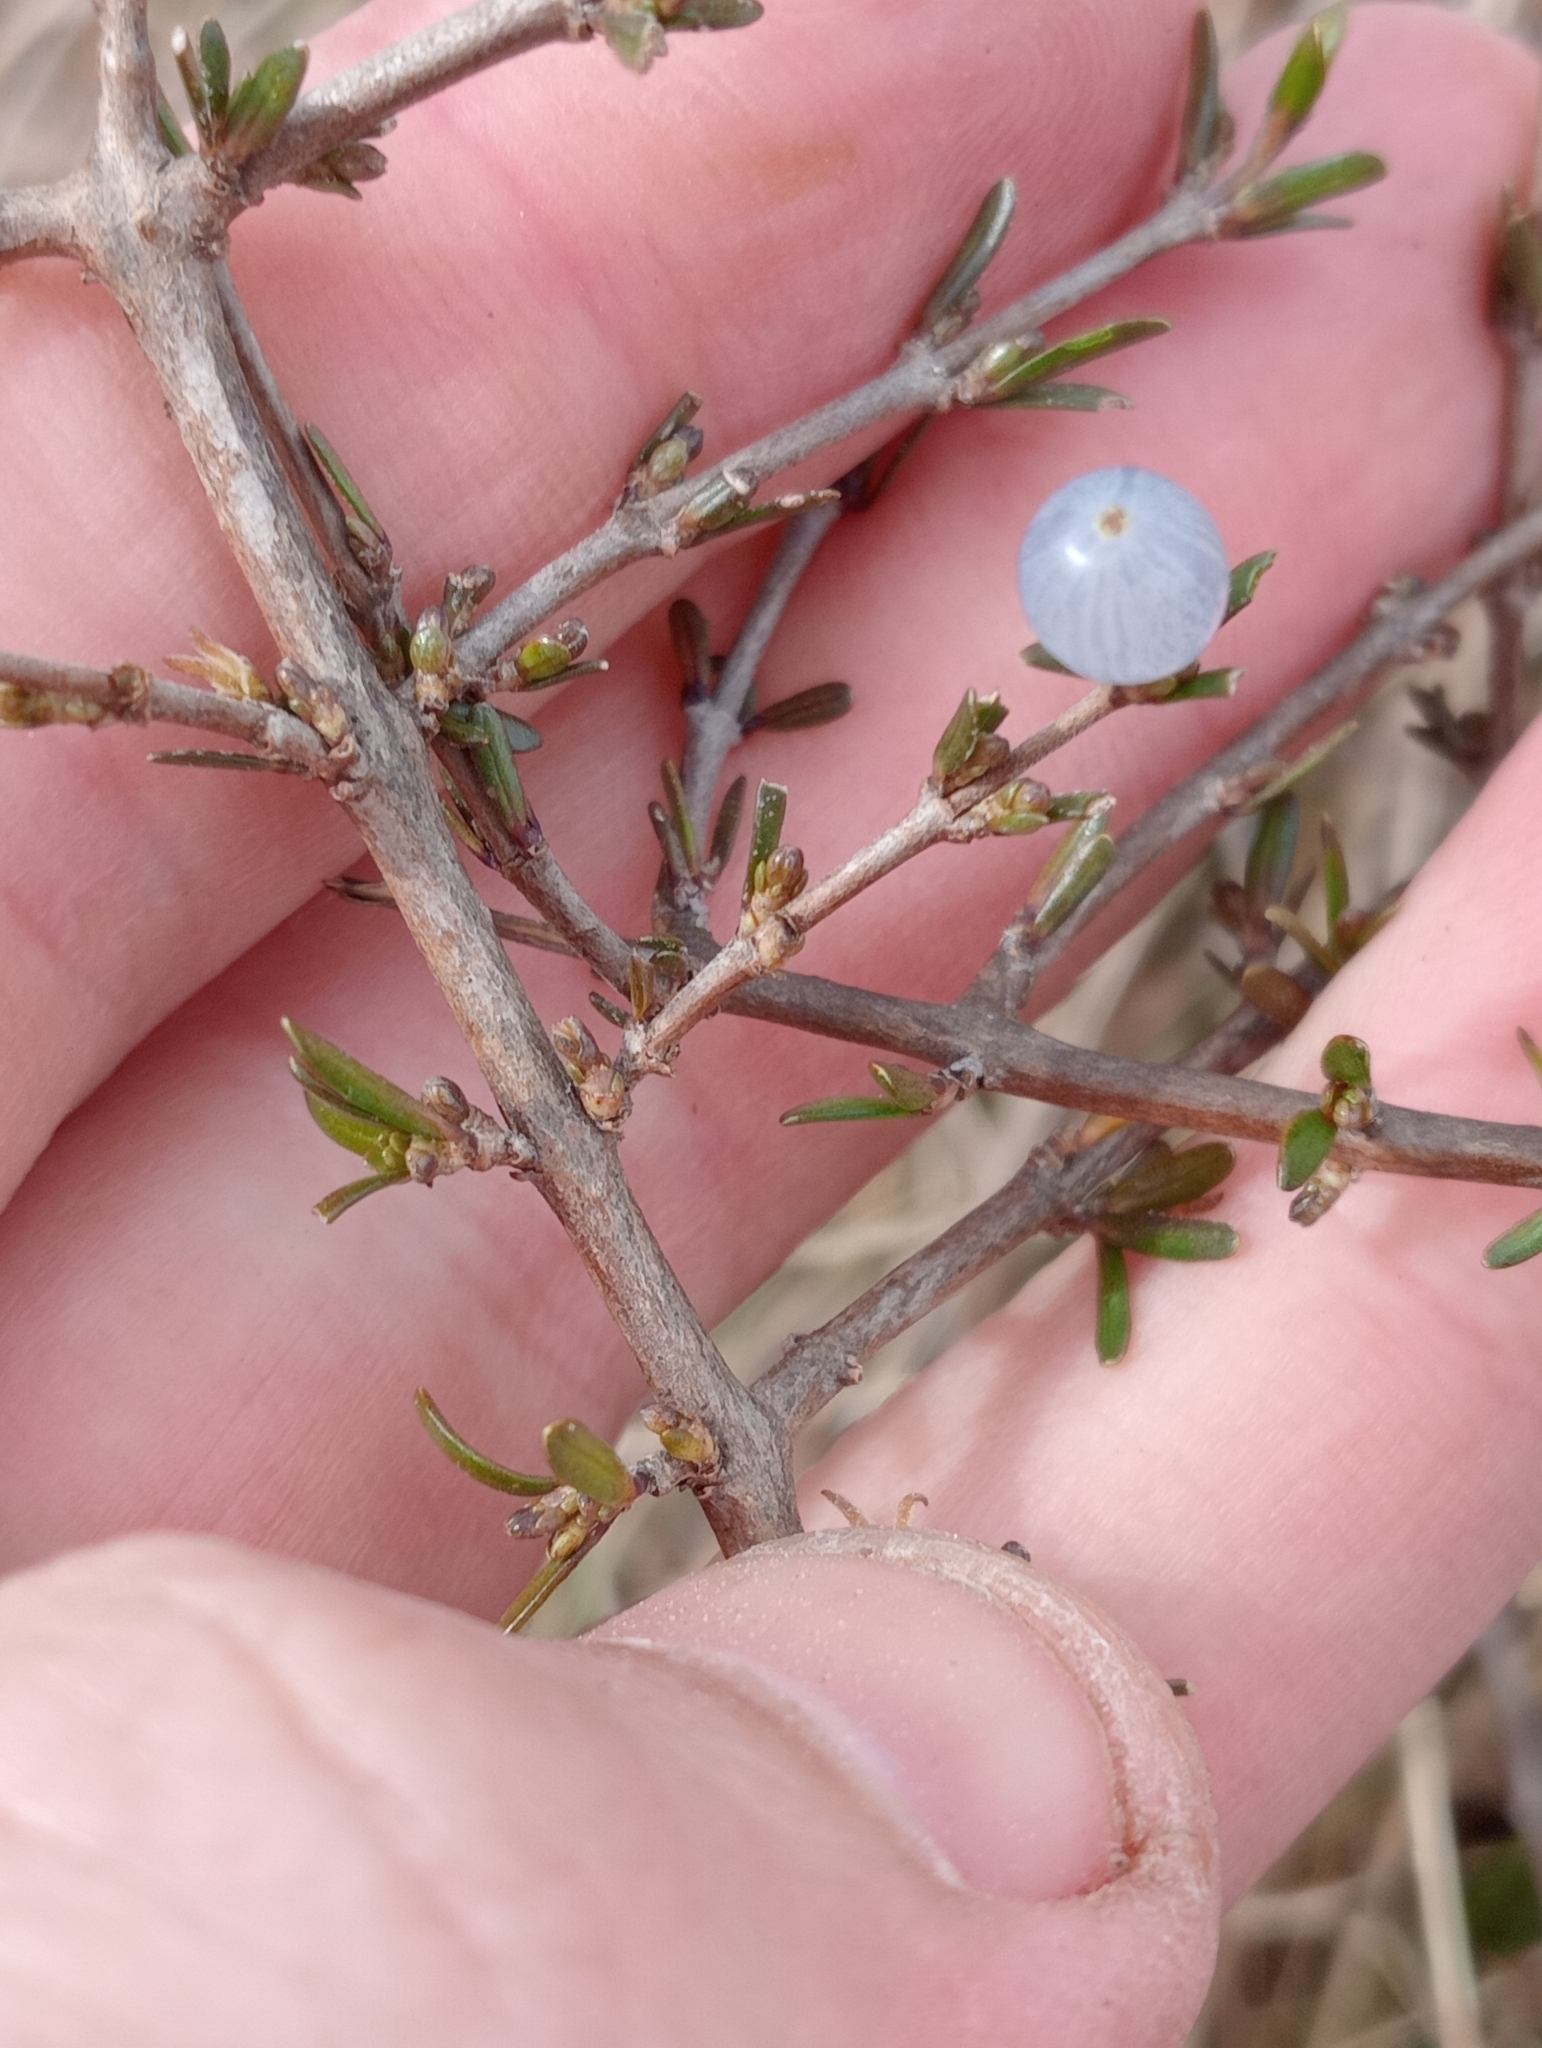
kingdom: Plantae
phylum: Tracheophyta
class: Magnoliopsida
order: Gentianales
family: Rubiaceae
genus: Coprosma
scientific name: Coprosma acerosa
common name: Sand coprosma
